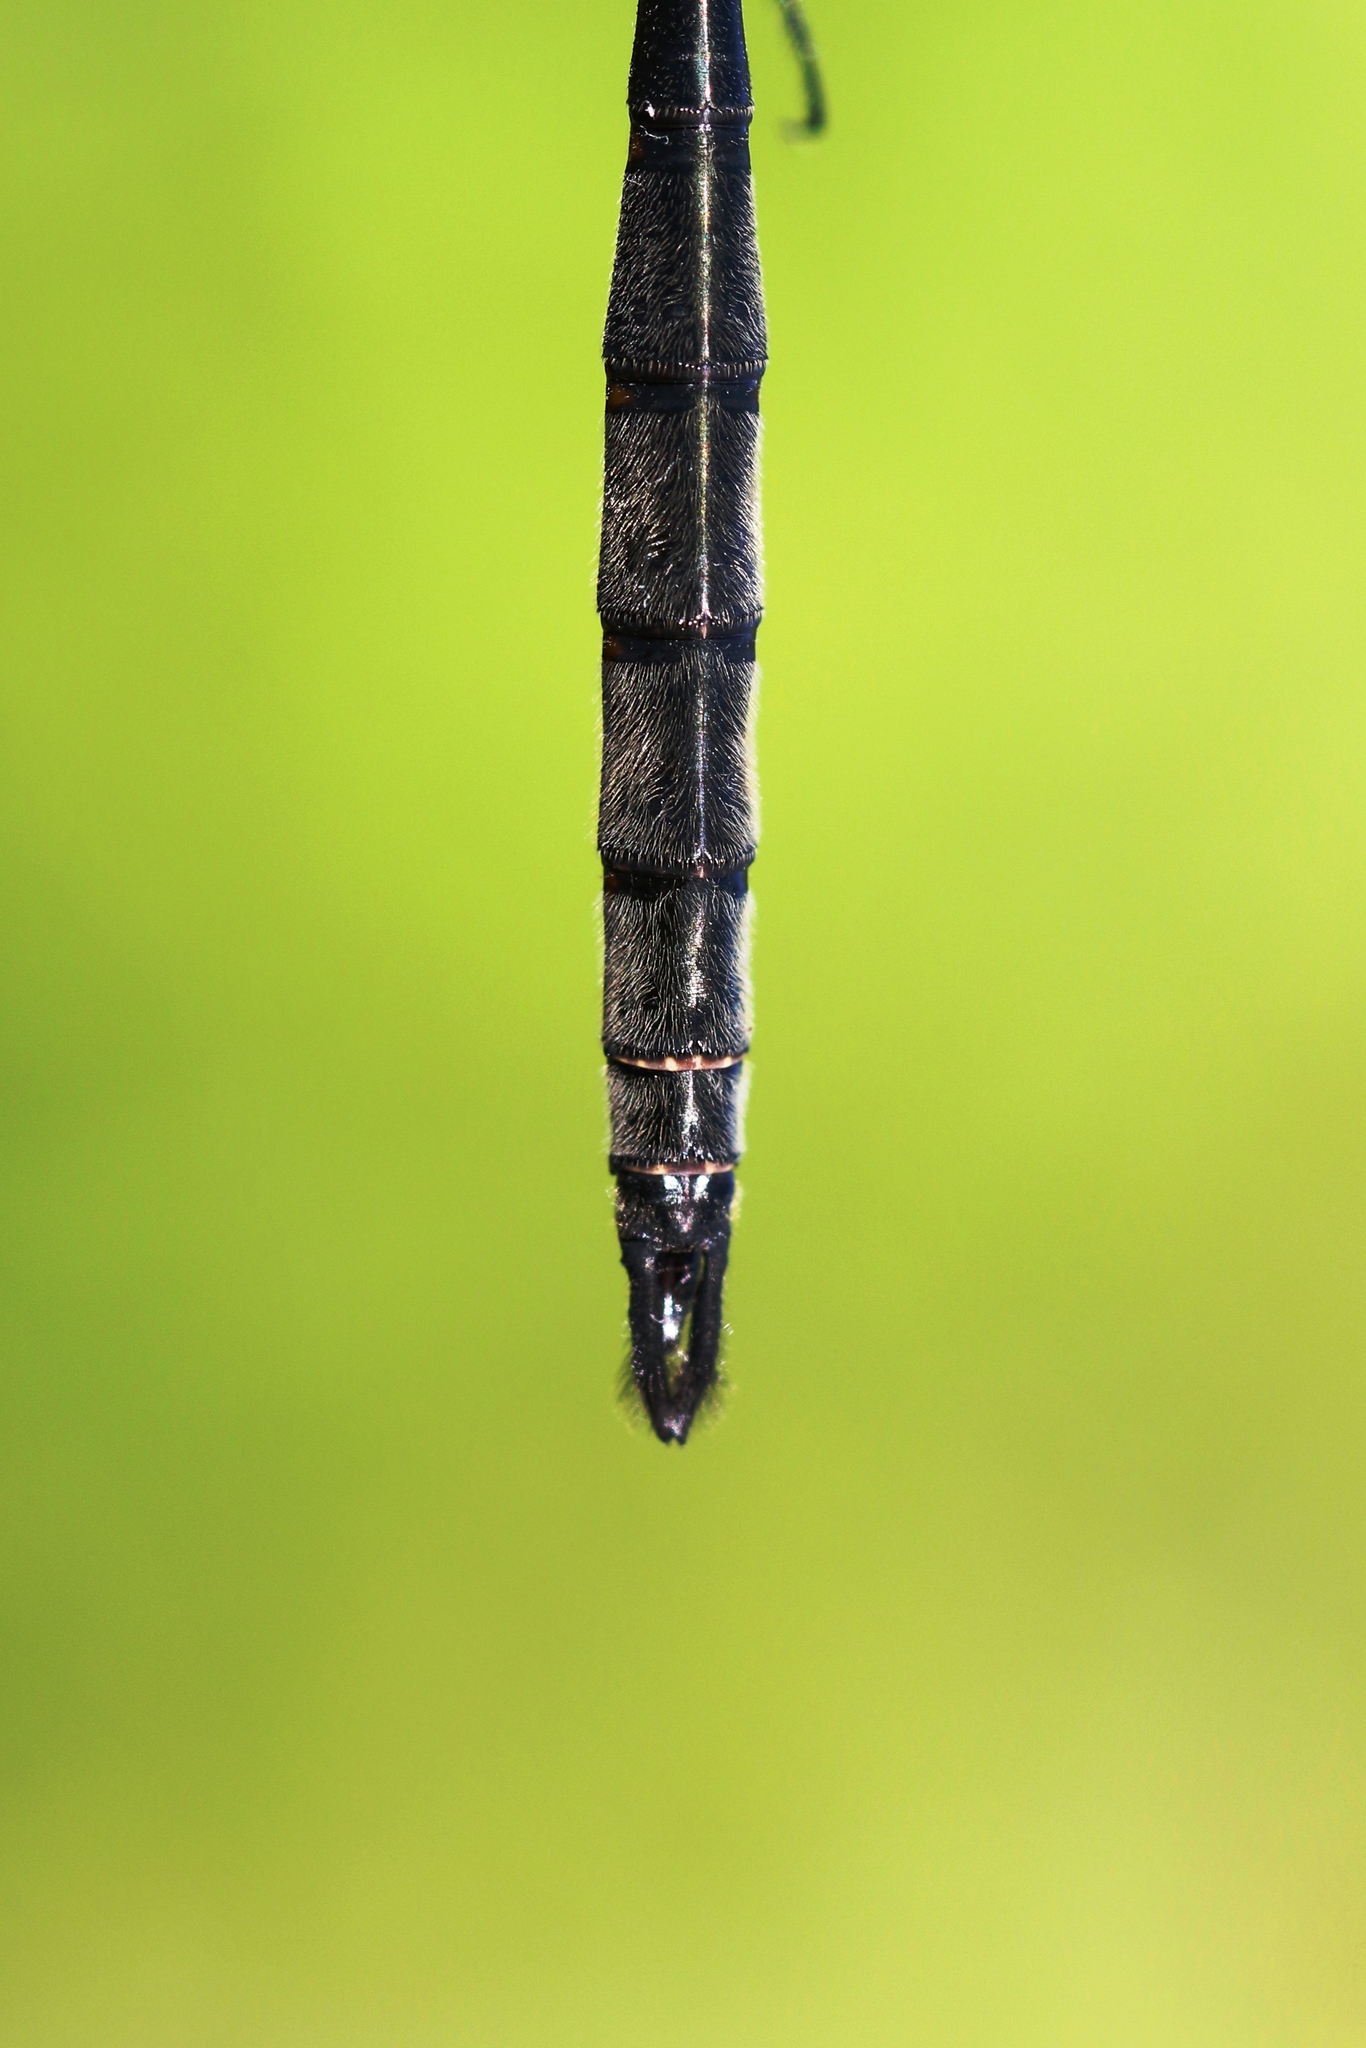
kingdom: Animalia
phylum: Arthropoda
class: Insecta
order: Odonata
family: Corduliidae
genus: Somatochlora
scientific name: Somatochlora williamsoni
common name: Williamson's emerald
